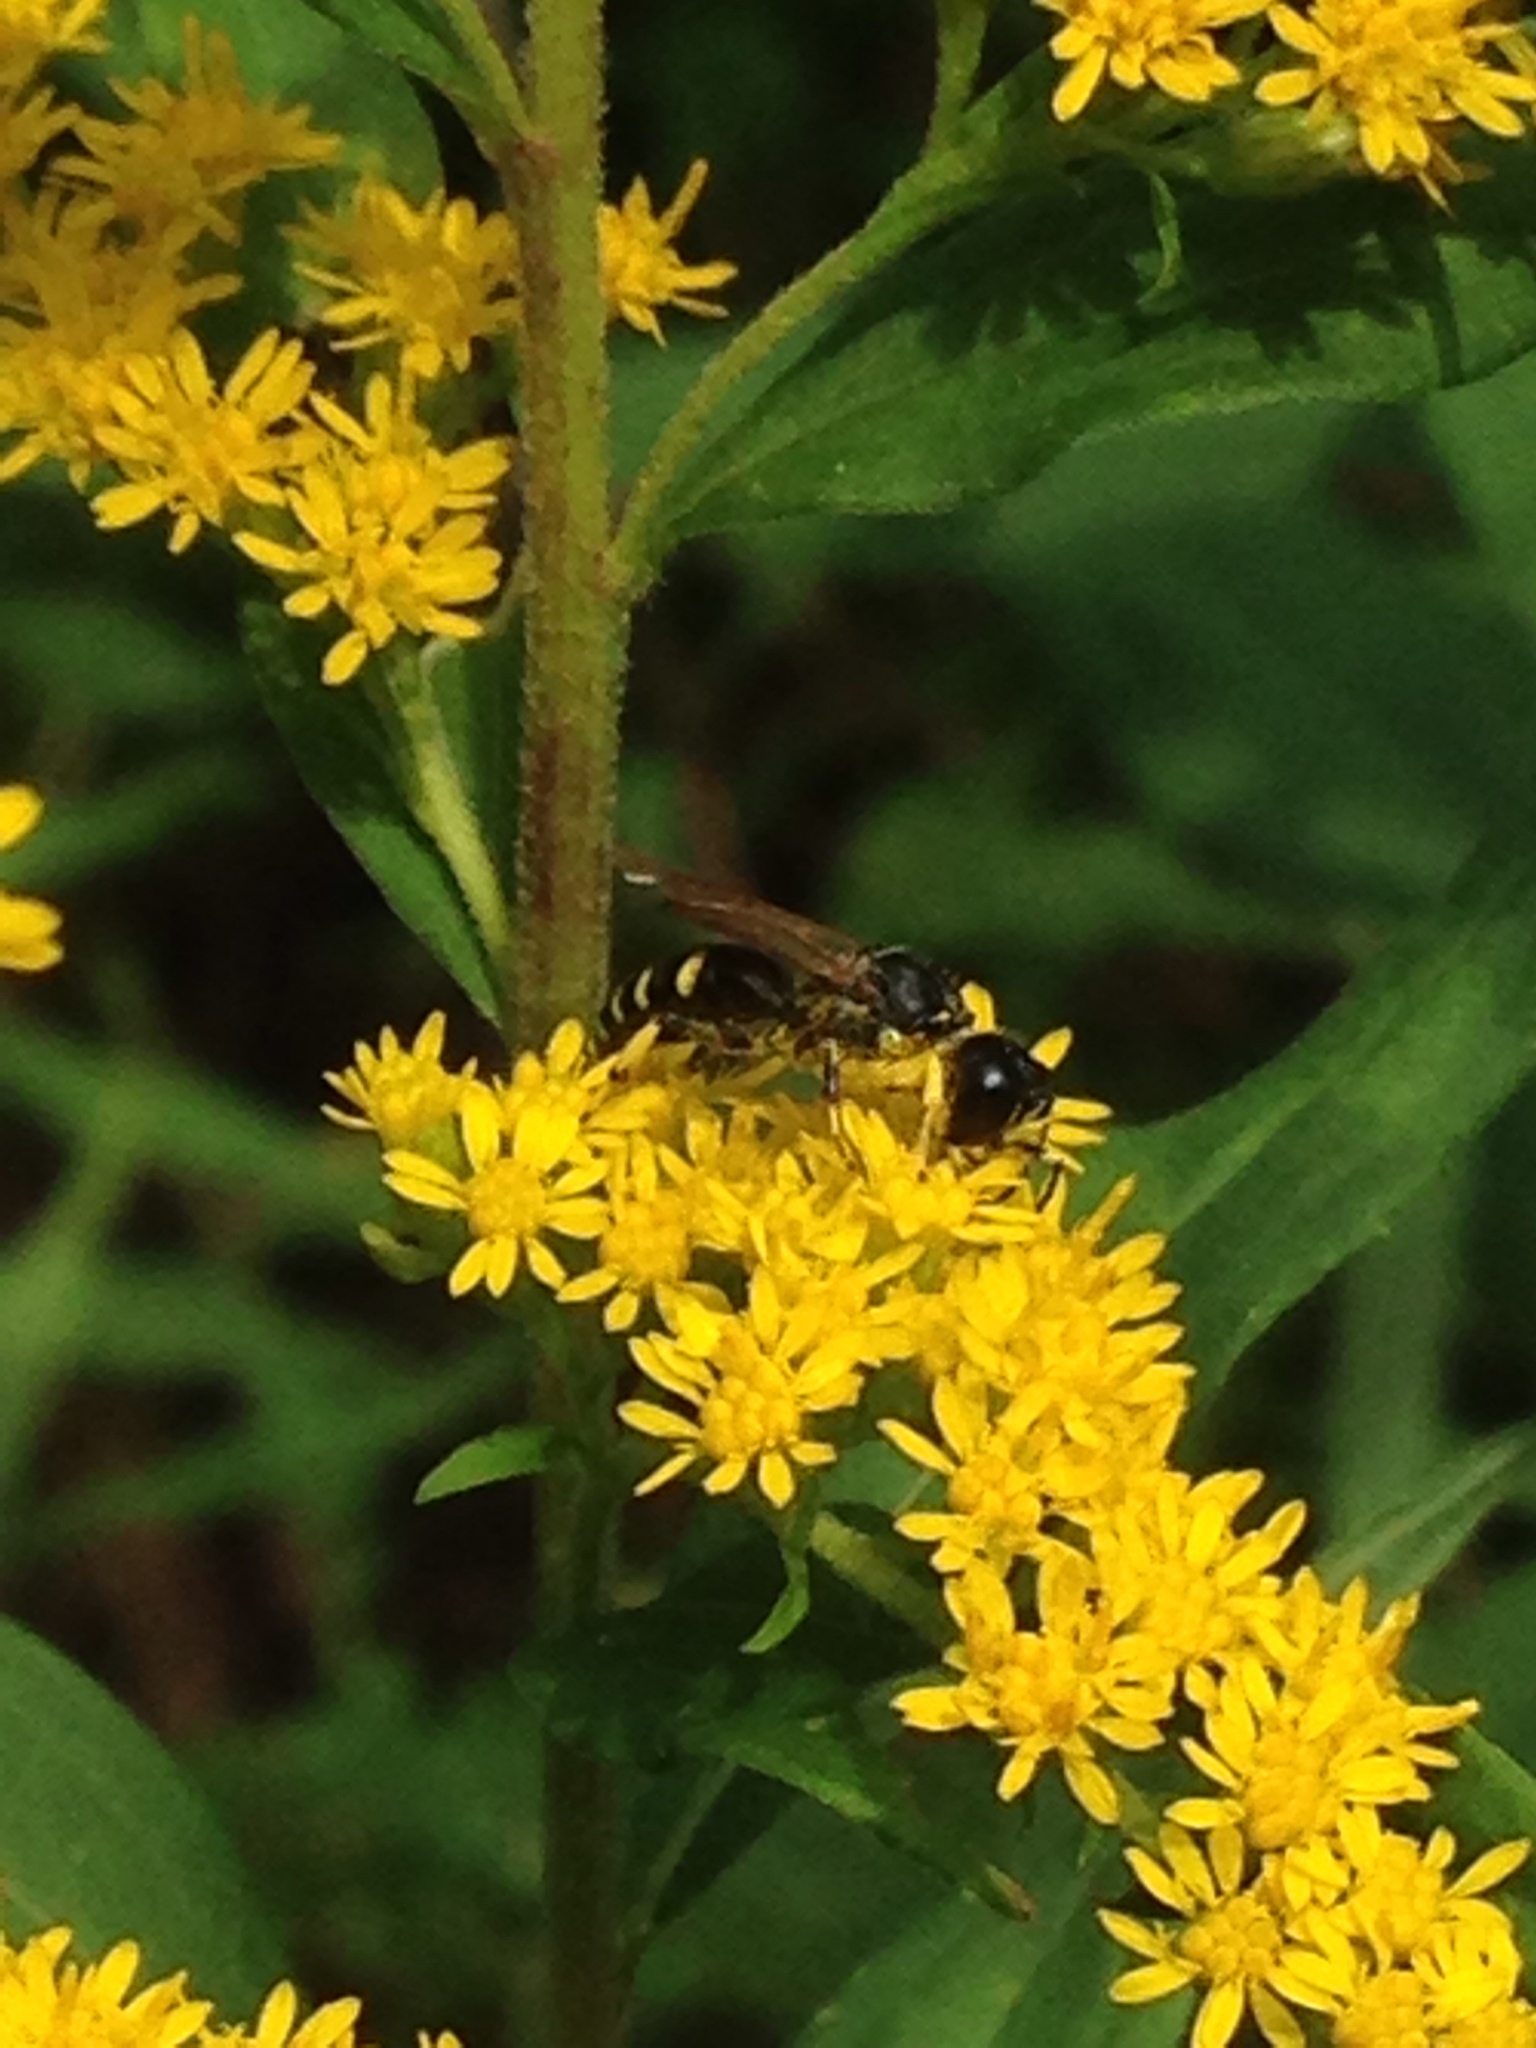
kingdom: Animalia
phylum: Arthropoda
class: Insecta
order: Hymenoptera
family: Crabronidae
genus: Ectemnius
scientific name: Ectemnius maculosus
